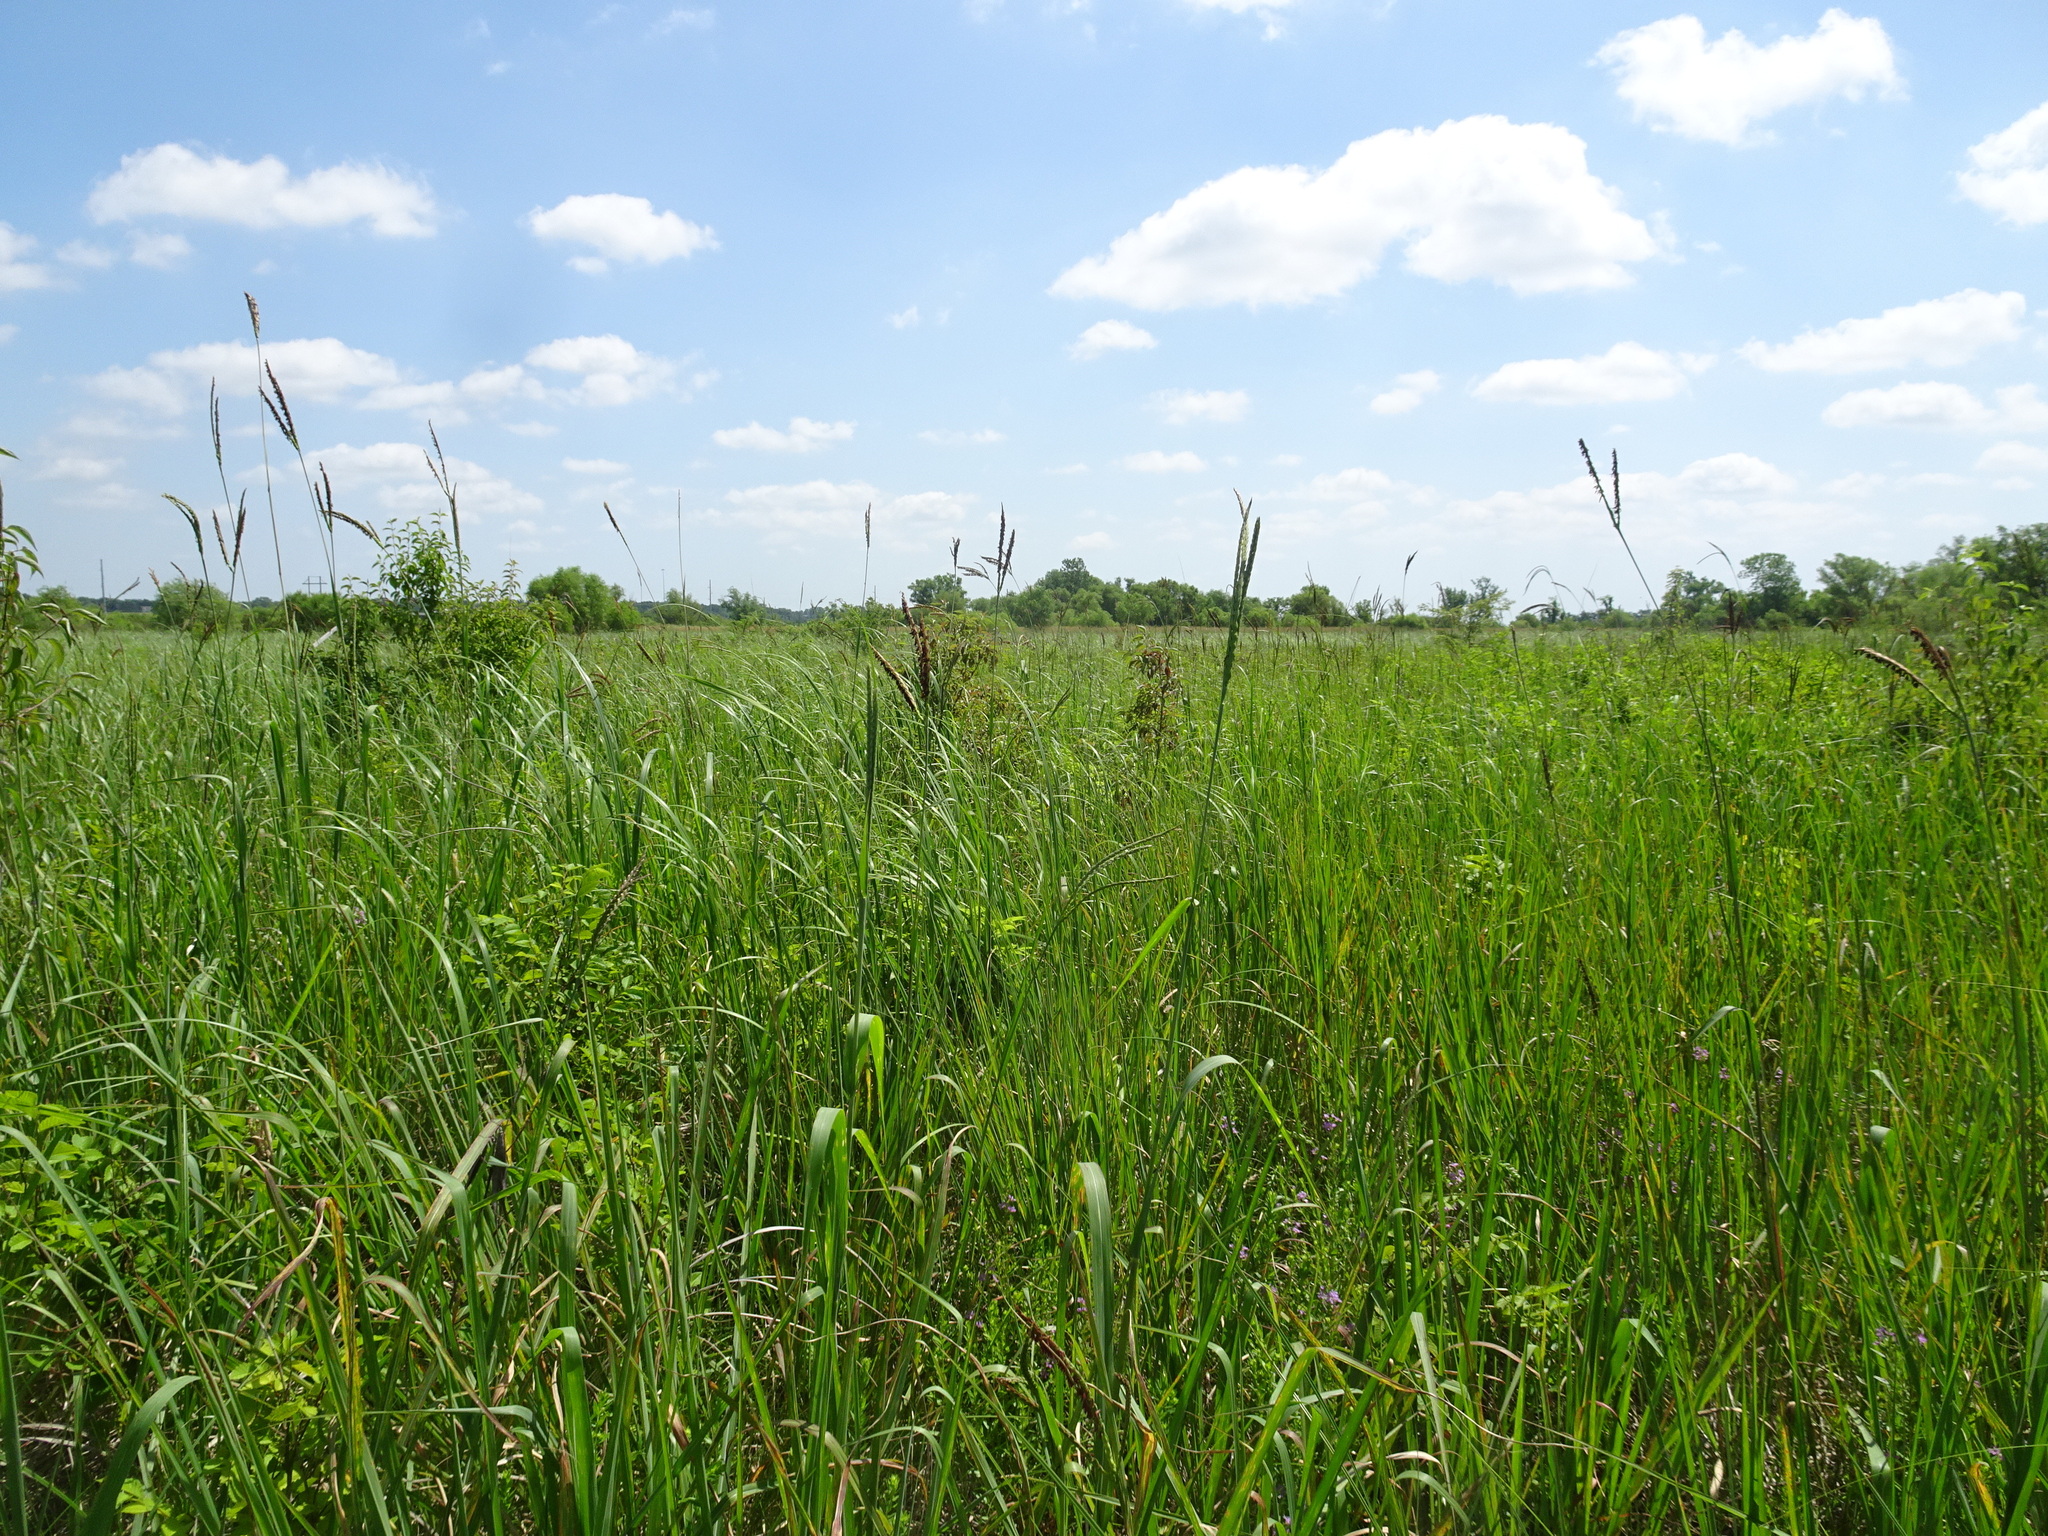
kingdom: Plantae
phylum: Tracheophyta
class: Liliopsida
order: Poales
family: Poaceae
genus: Tripsacum
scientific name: Tripsacum dactyloides
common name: Buffalo-grass
